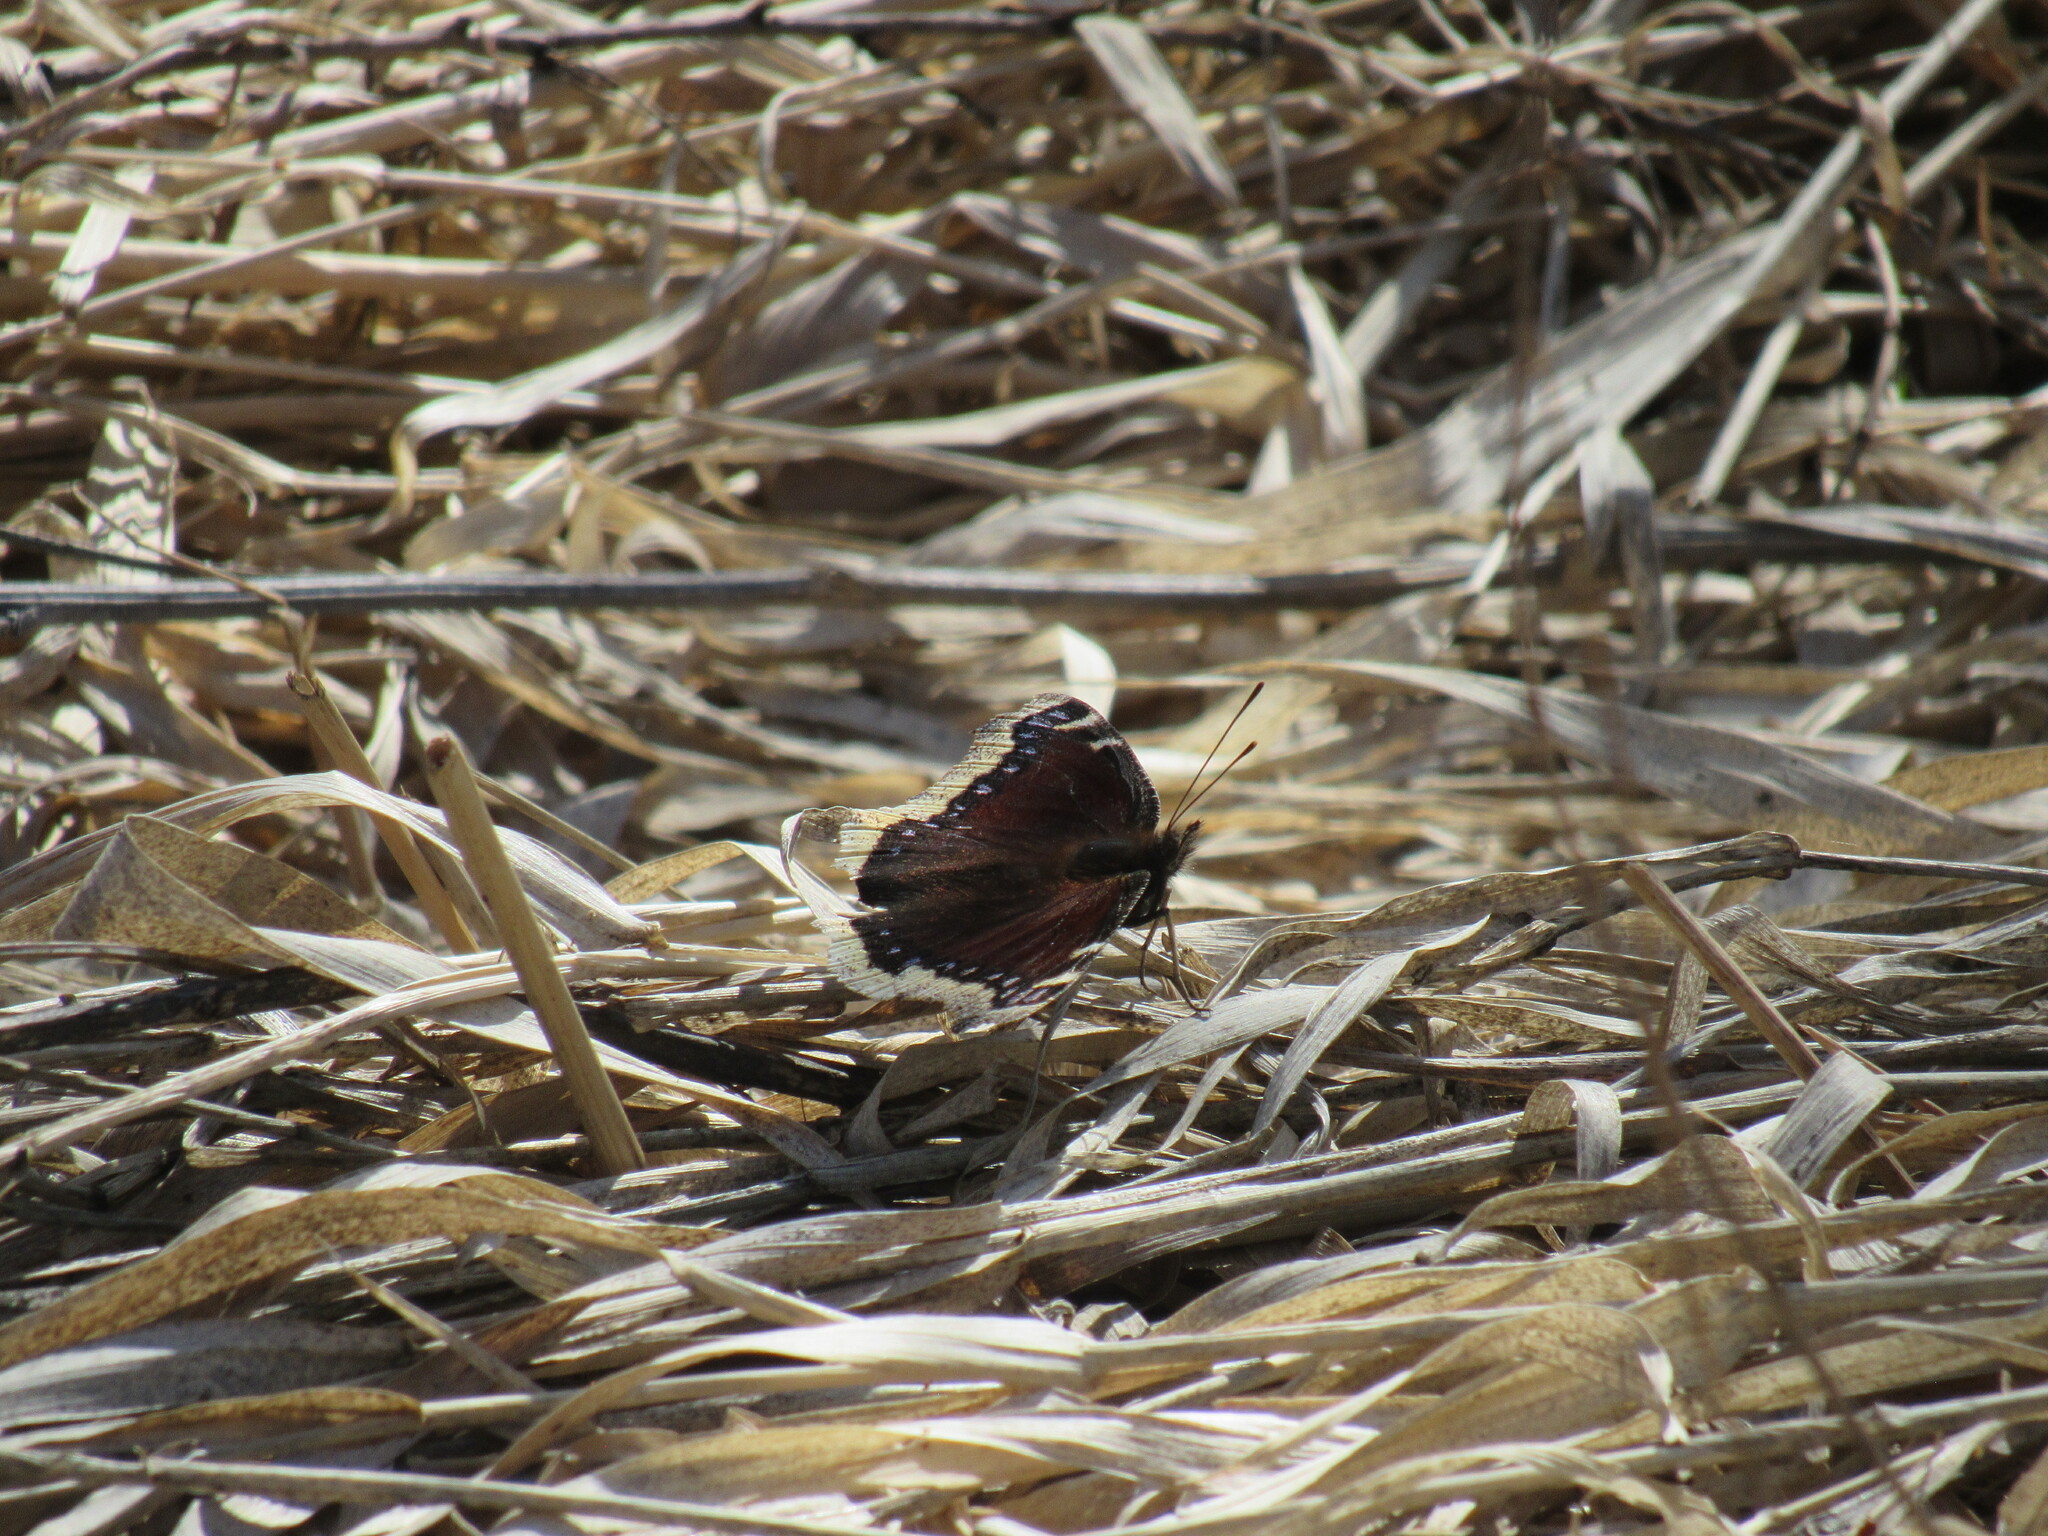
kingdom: Animalia
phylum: Arthropoda
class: Insecta
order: Lepidoptera
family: Nymphalidae
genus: Nymphalis
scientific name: Nymphalis antiopa
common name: Camberwell beauty
